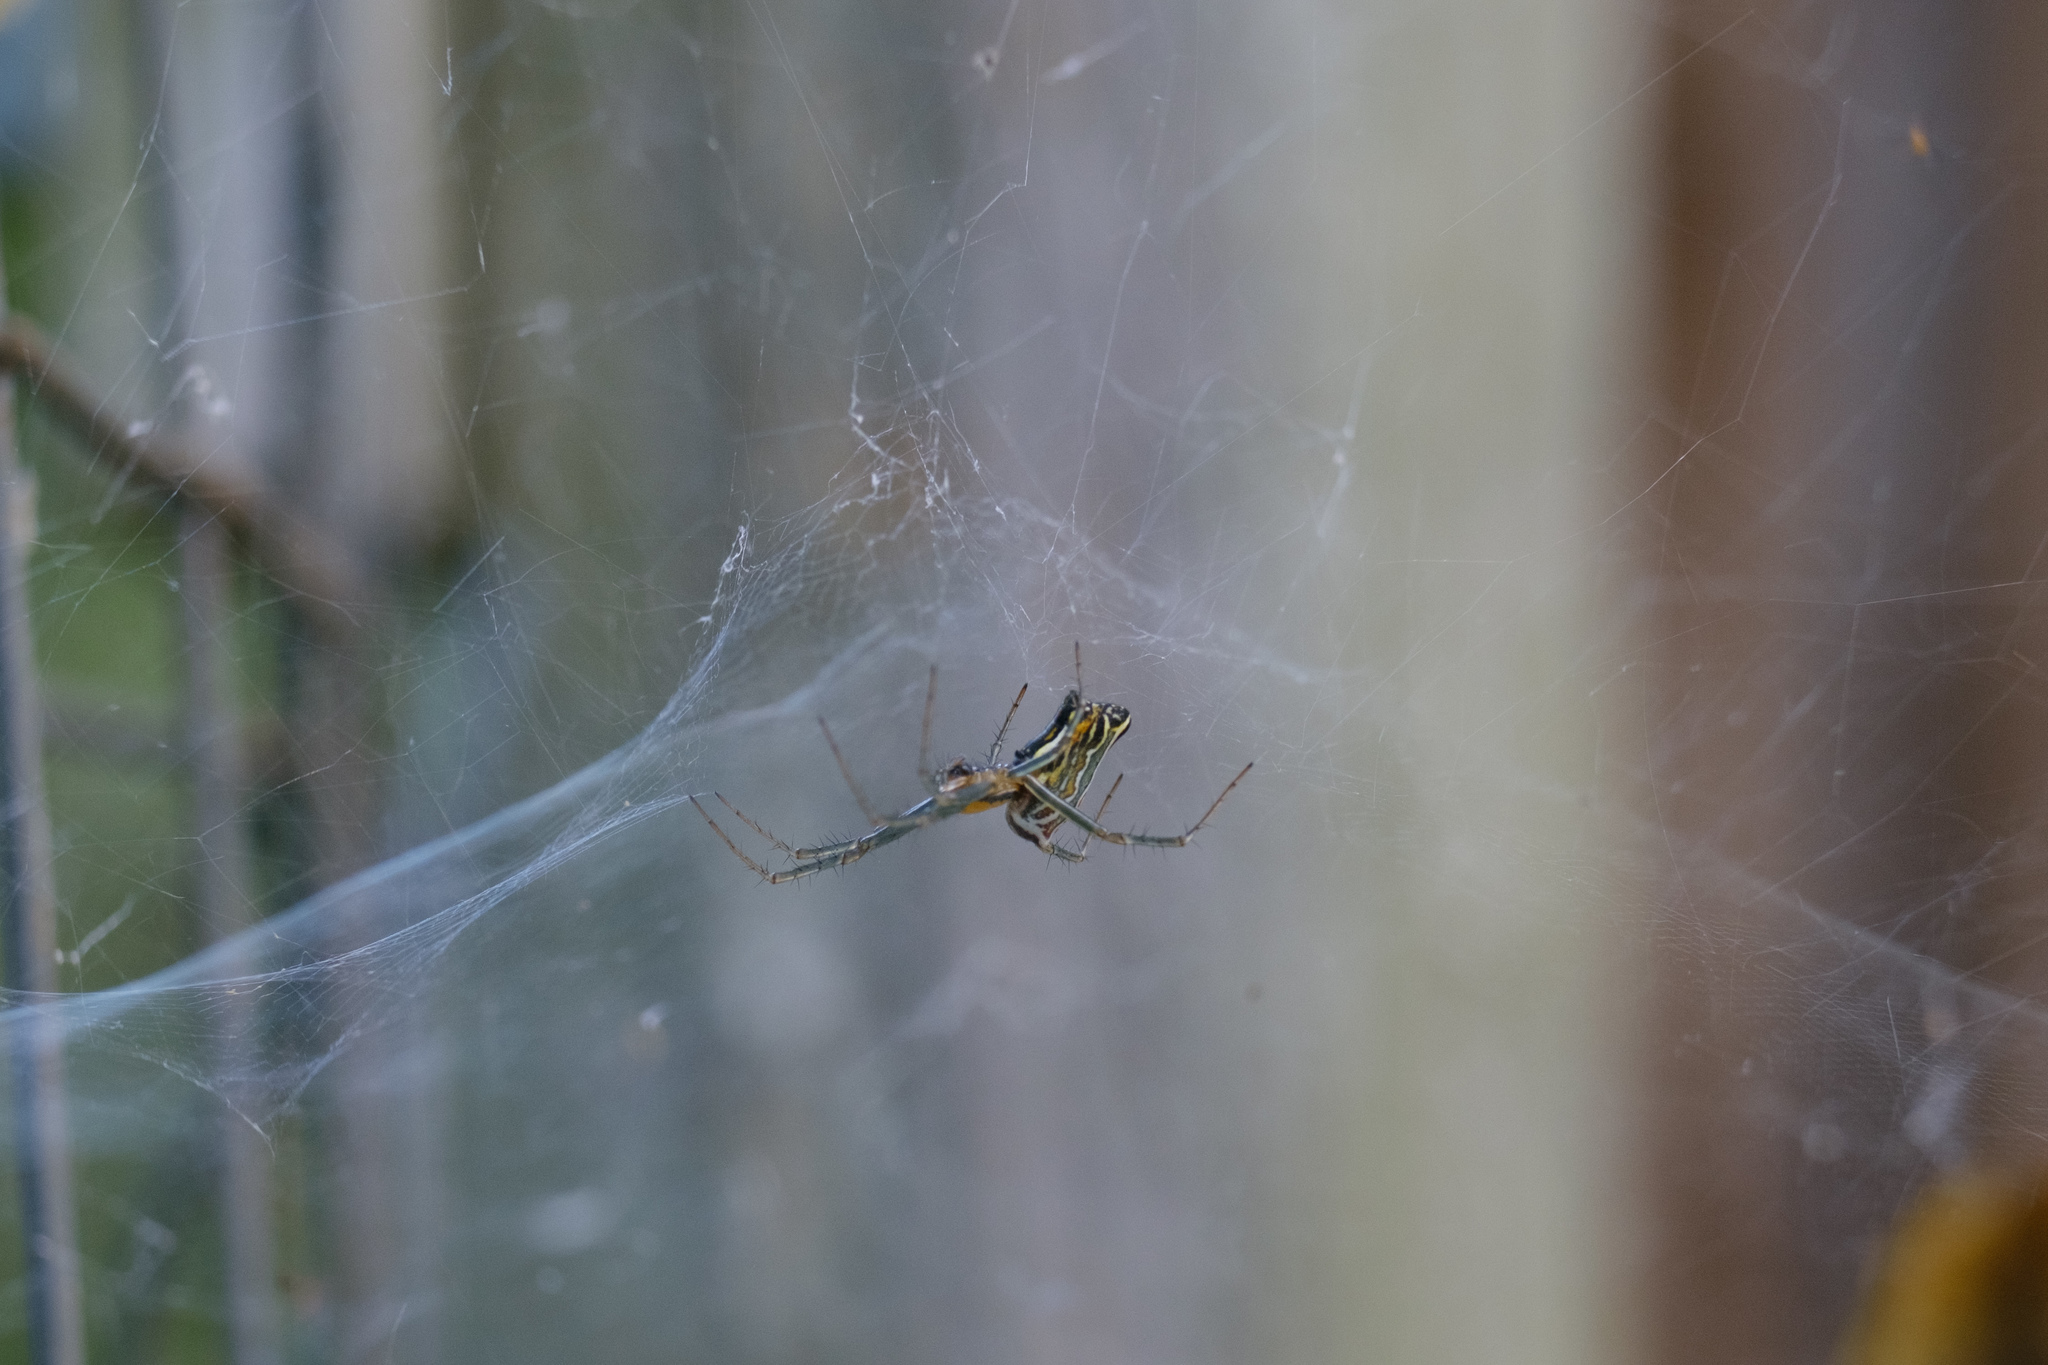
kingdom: Animalia
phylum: Arthropoda
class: Arachnida
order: Araneae
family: Araneidae
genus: Mecynogea
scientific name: Mecynogea lemniscata
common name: Orb weavers
